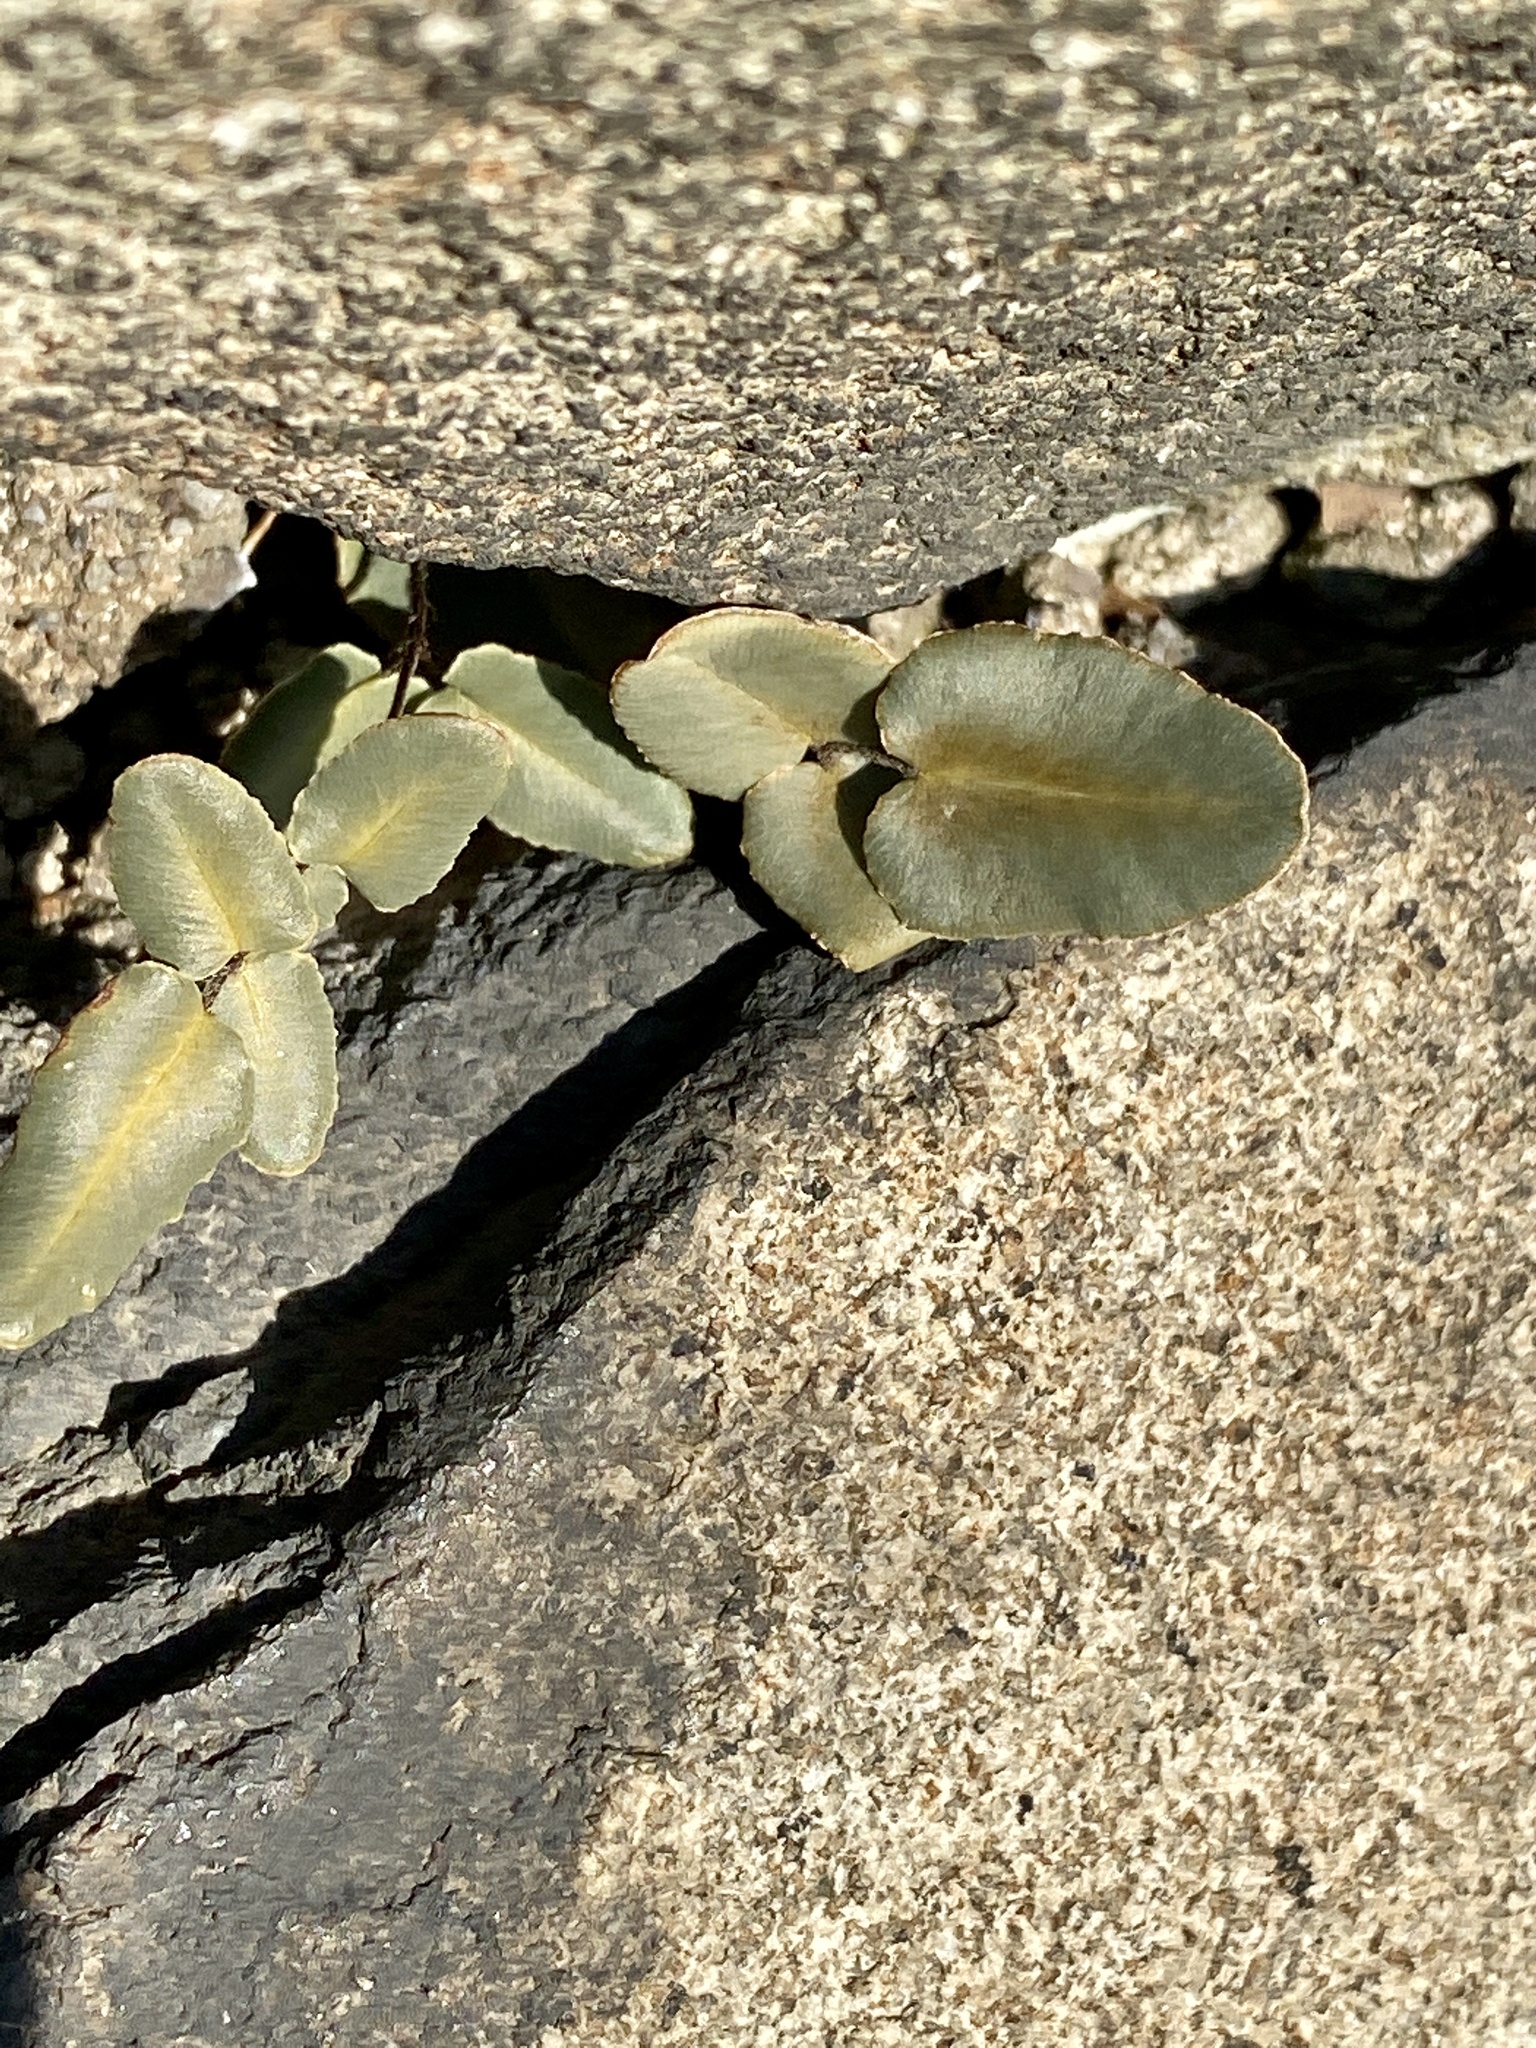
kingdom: Plantae
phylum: Tracheophyta
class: Polypodiopsida
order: Polypodiales
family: Pteridaceae
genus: Pellaea
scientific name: Pellaea atropurpurea
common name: Hairy cliffbrake
